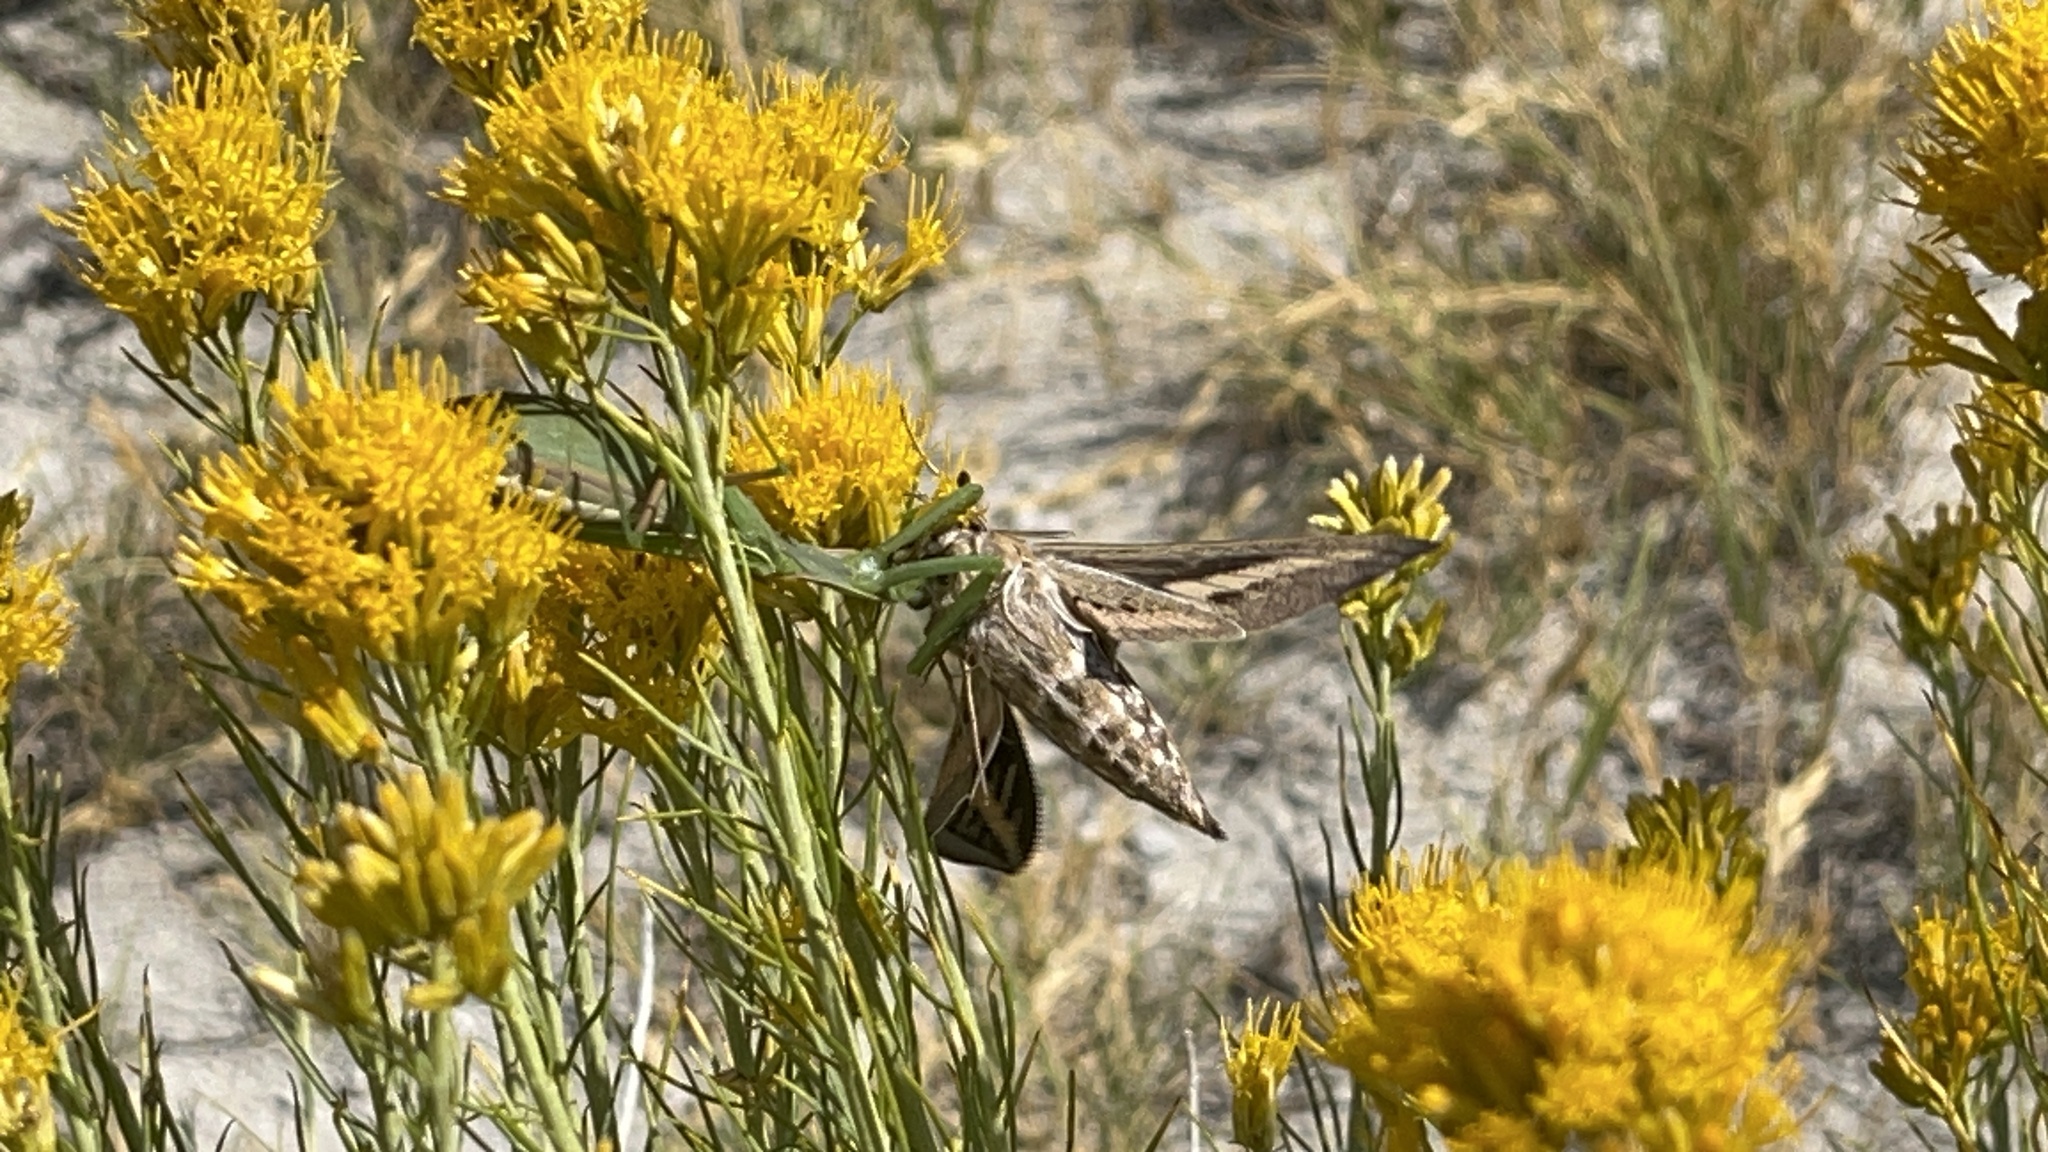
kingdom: Animalia
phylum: Arthropoda
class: Insecta
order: Lepidoptera
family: Sphingidae
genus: Hyles
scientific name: Hyles lineata
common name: White-lined sphinx
